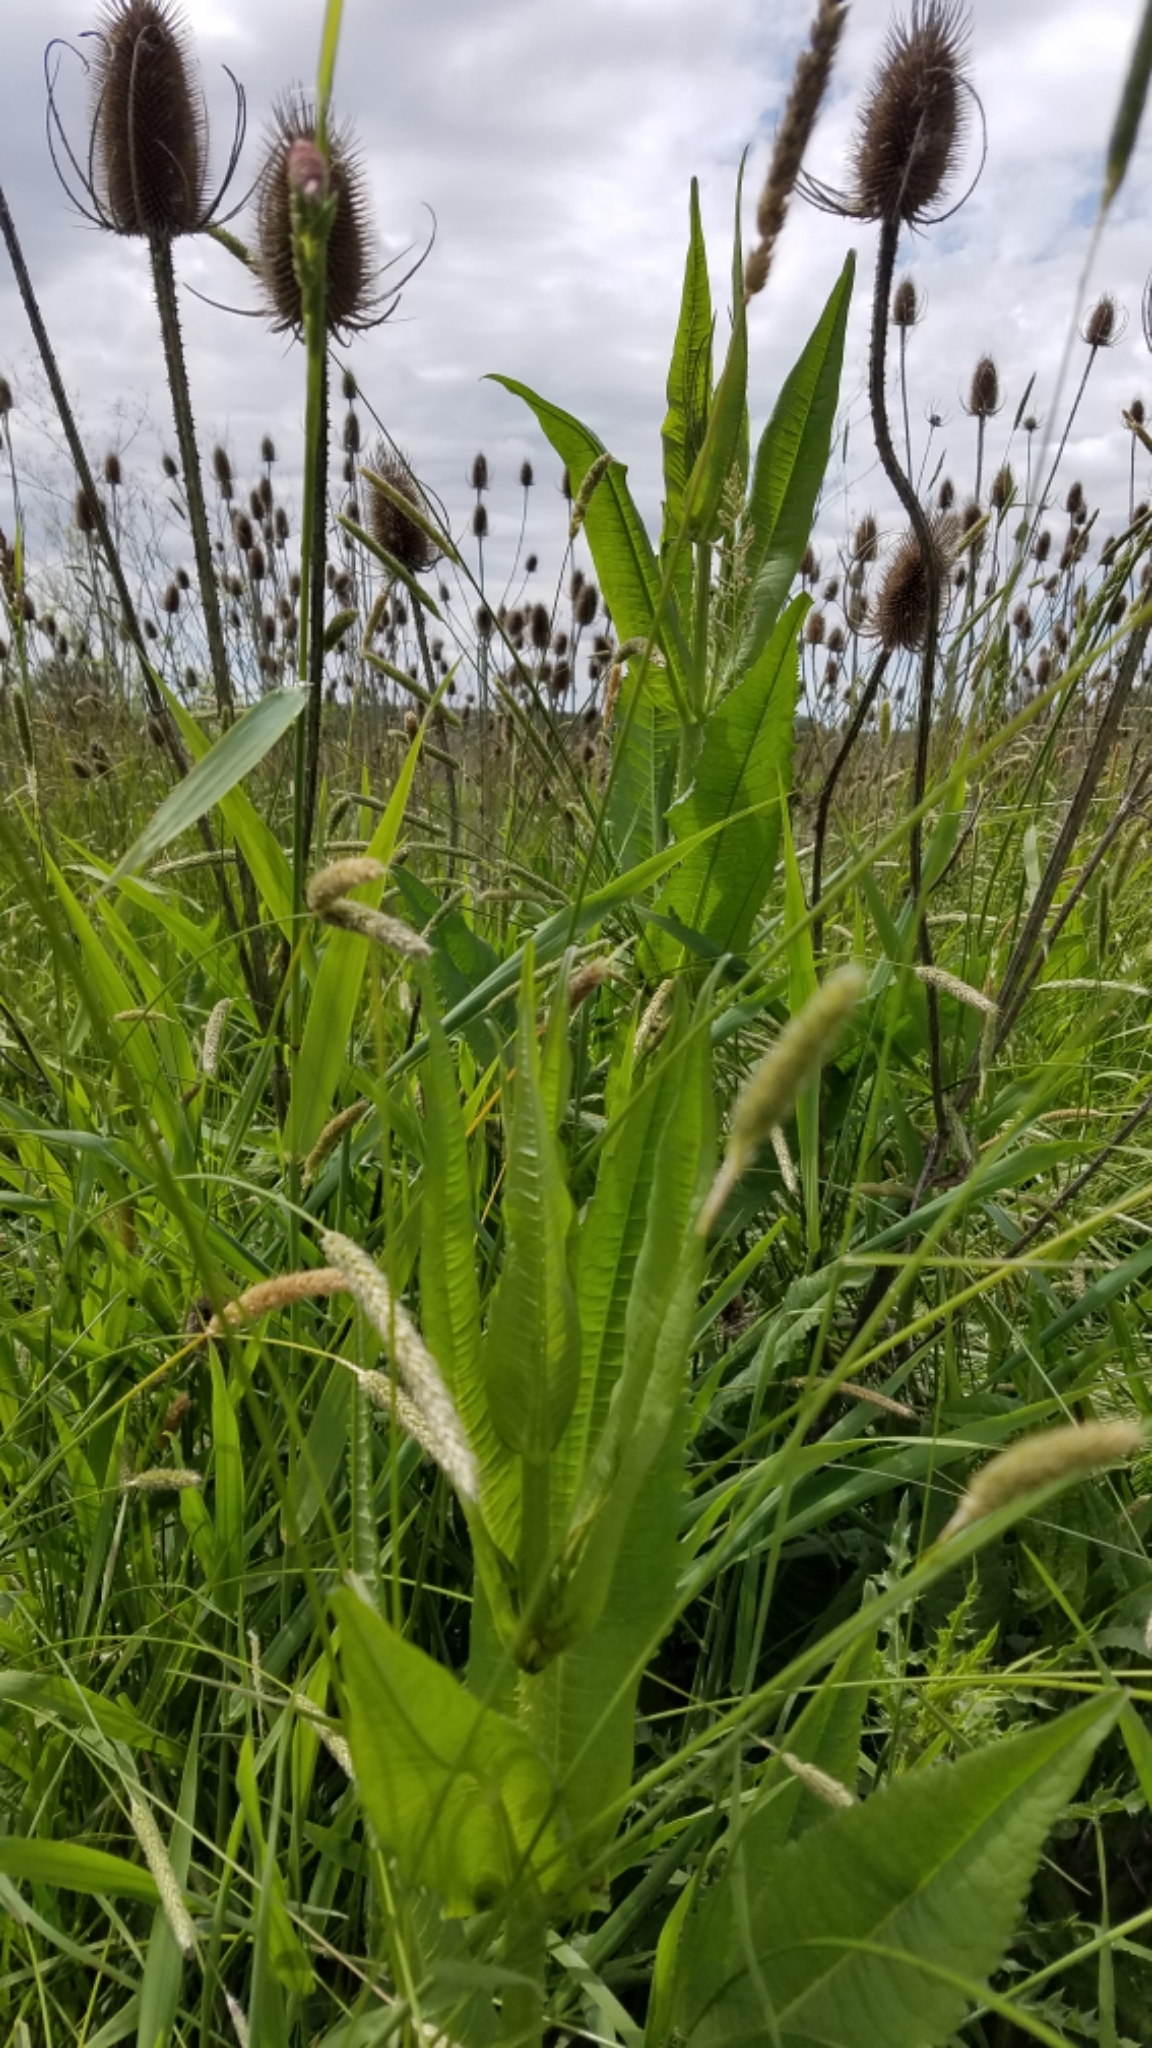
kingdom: Plantae
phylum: Tracheophyta
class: Magnoliopsida
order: Dipsacales
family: Caprifoliaceae
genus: Dipsacus
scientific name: Dipsacus fullonum
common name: Teasel
